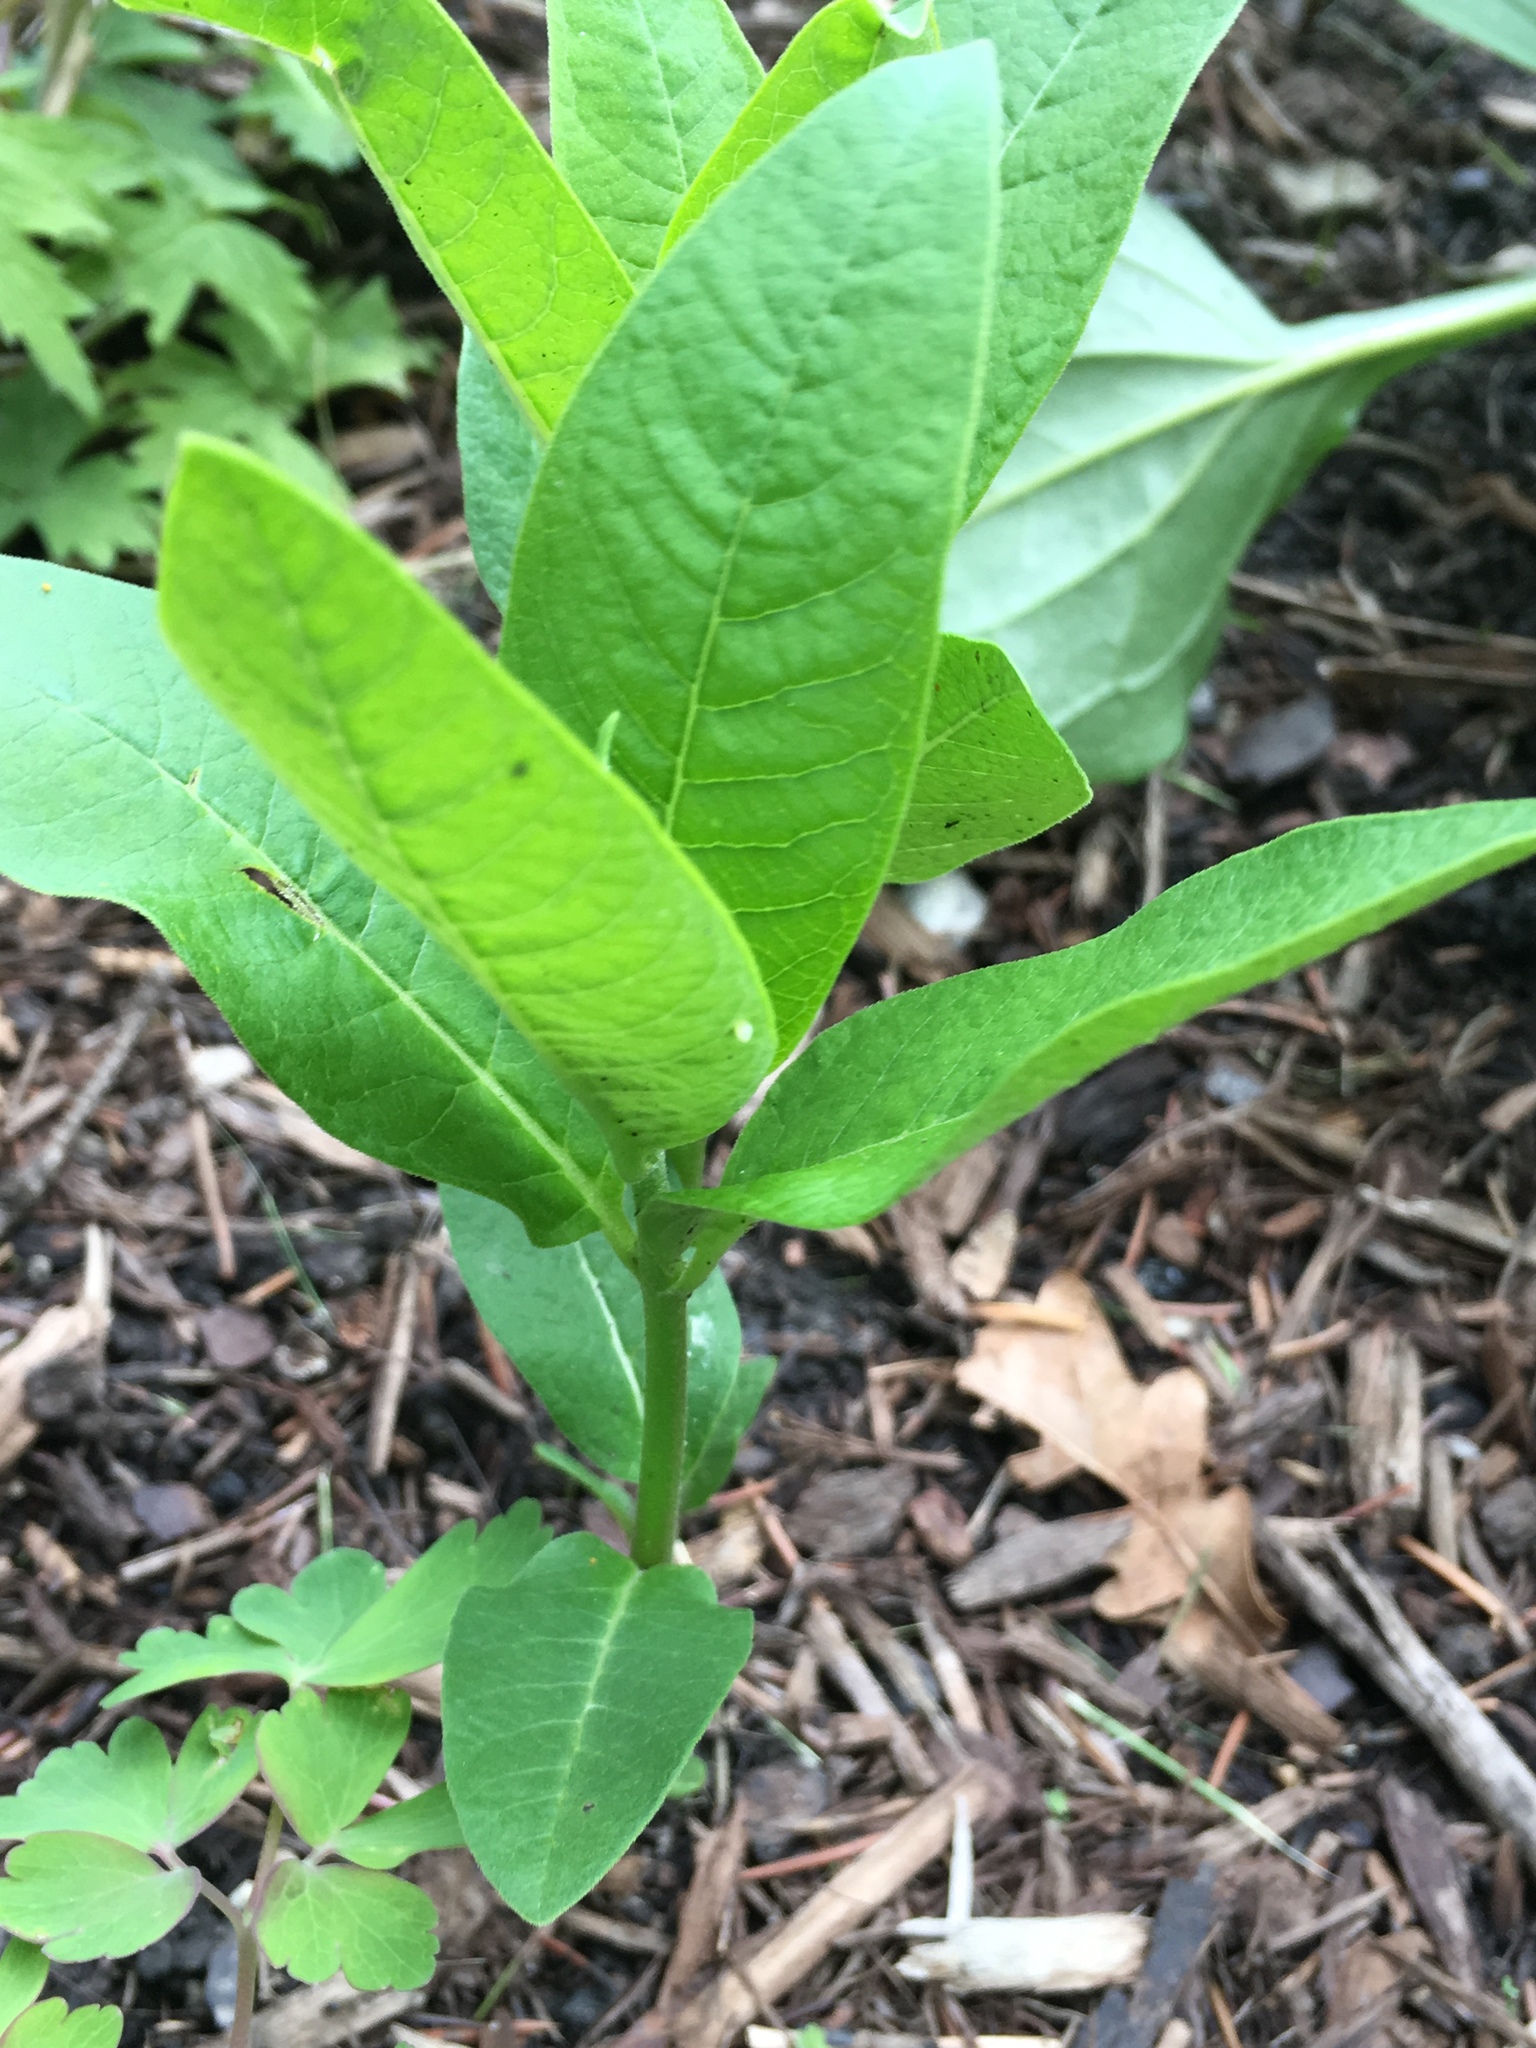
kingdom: Animalia
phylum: Arthropoda
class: Insecta
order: Lepidoptera
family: Nymphalidae
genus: Danaus
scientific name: Danaus plexippus
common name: Monarch
